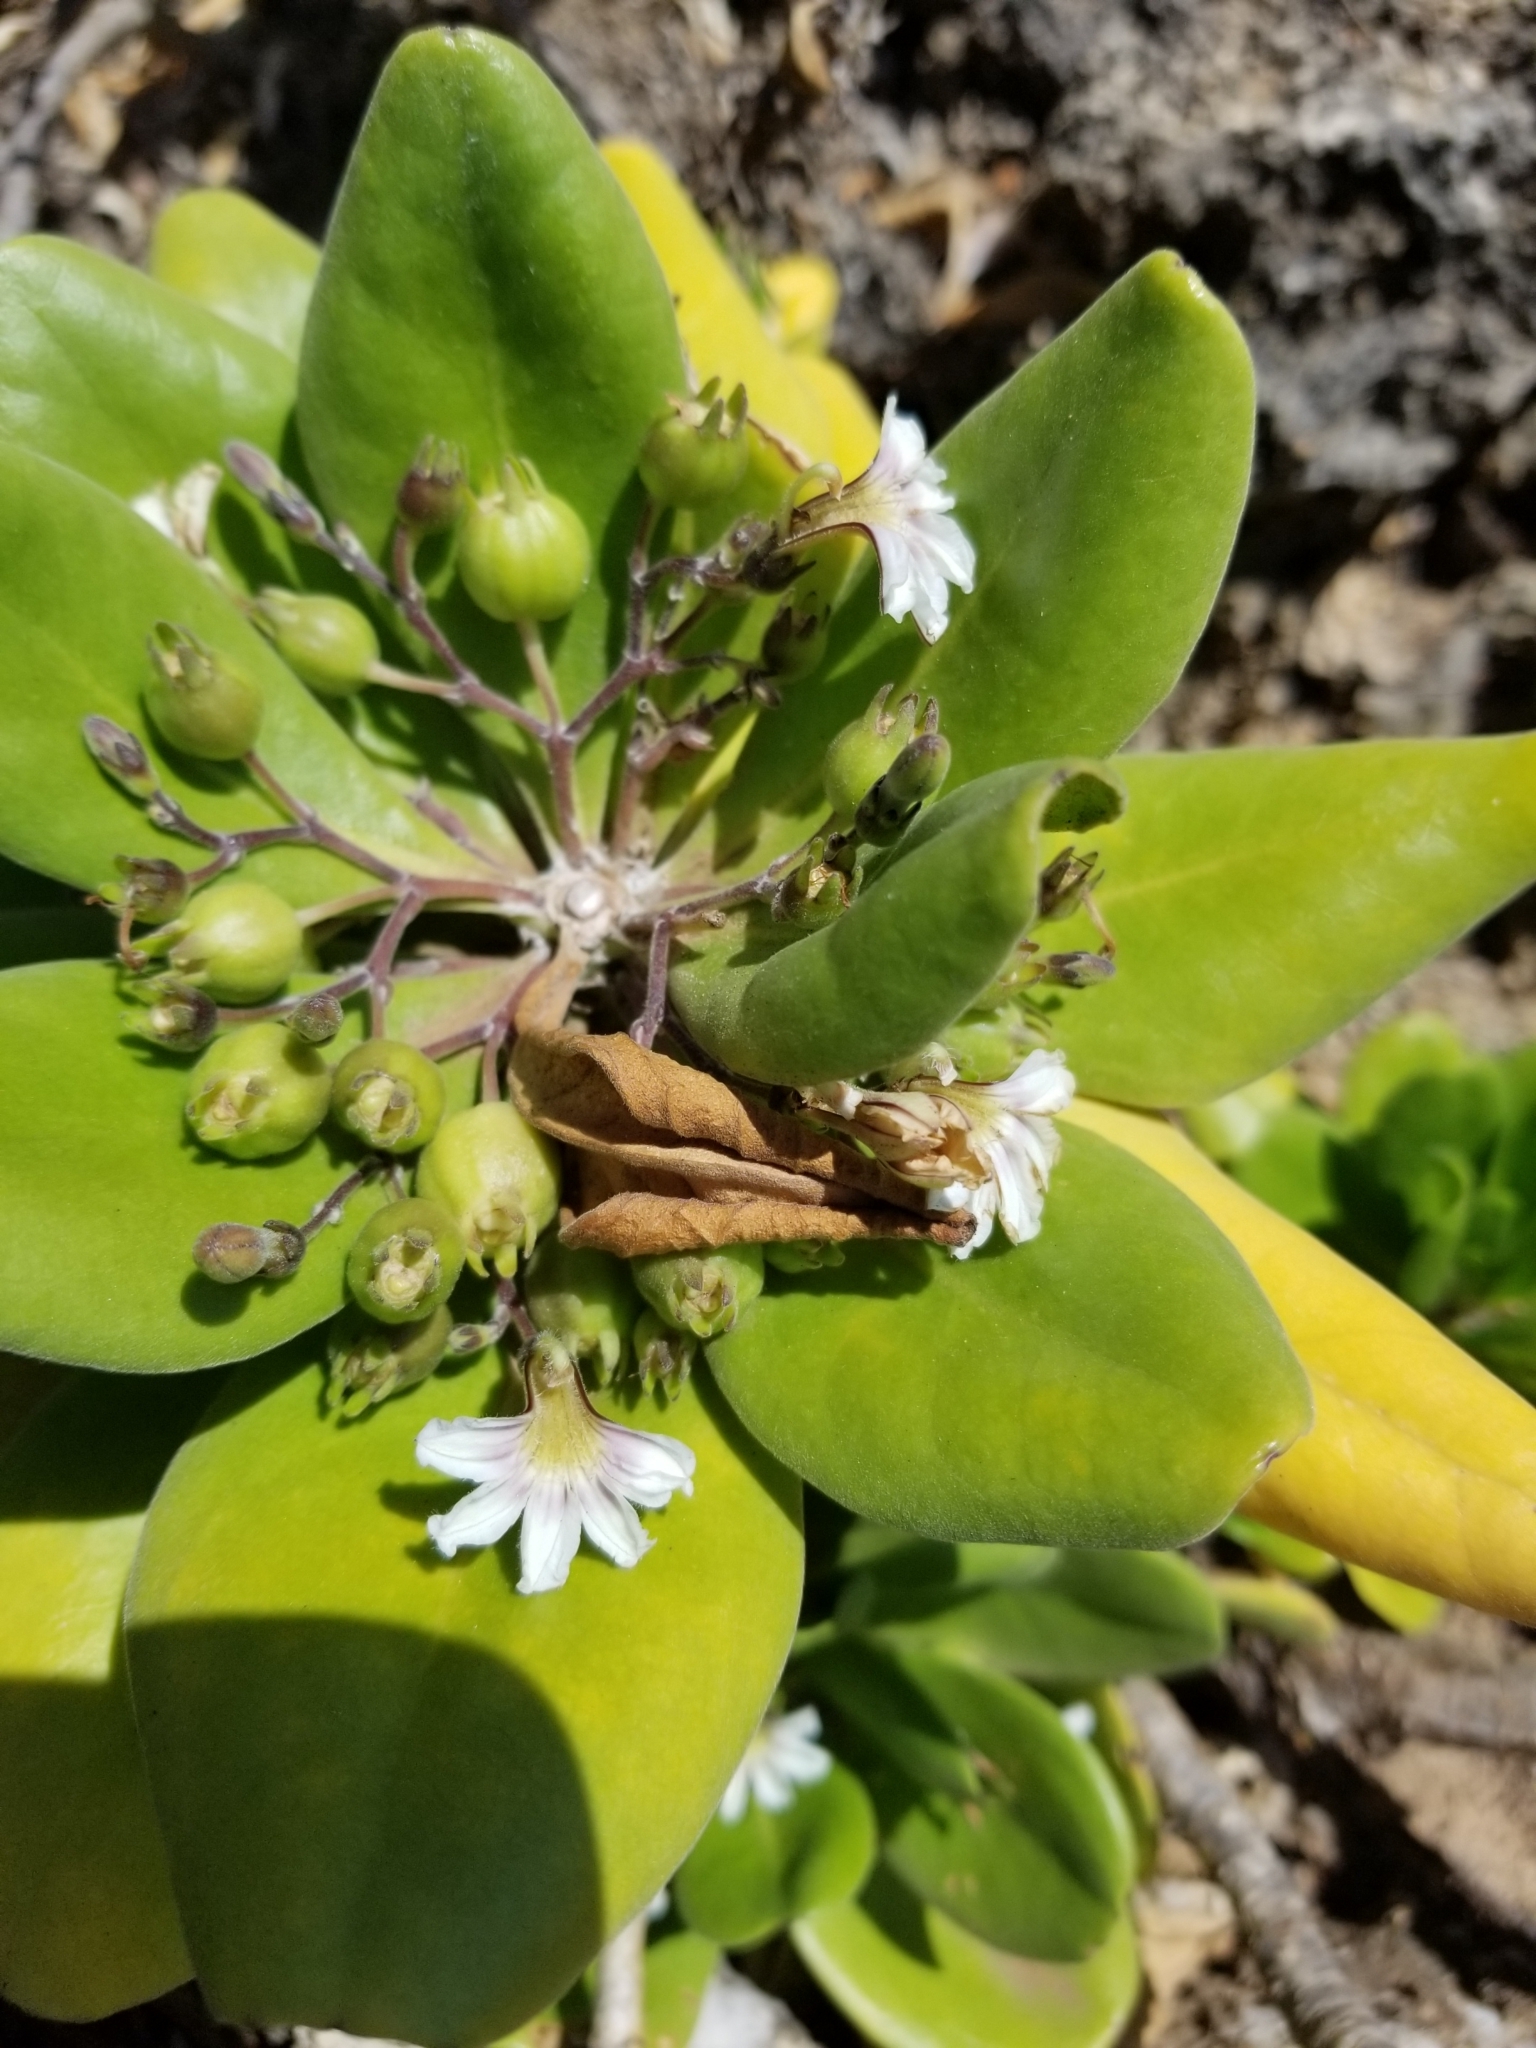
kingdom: Plantae
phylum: Tracheophyta
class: Magnoliopsida
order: Asterales
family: Goodeniaceae
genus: Scaevola
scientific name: Scaevola taccada
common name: Sea lettucetree
